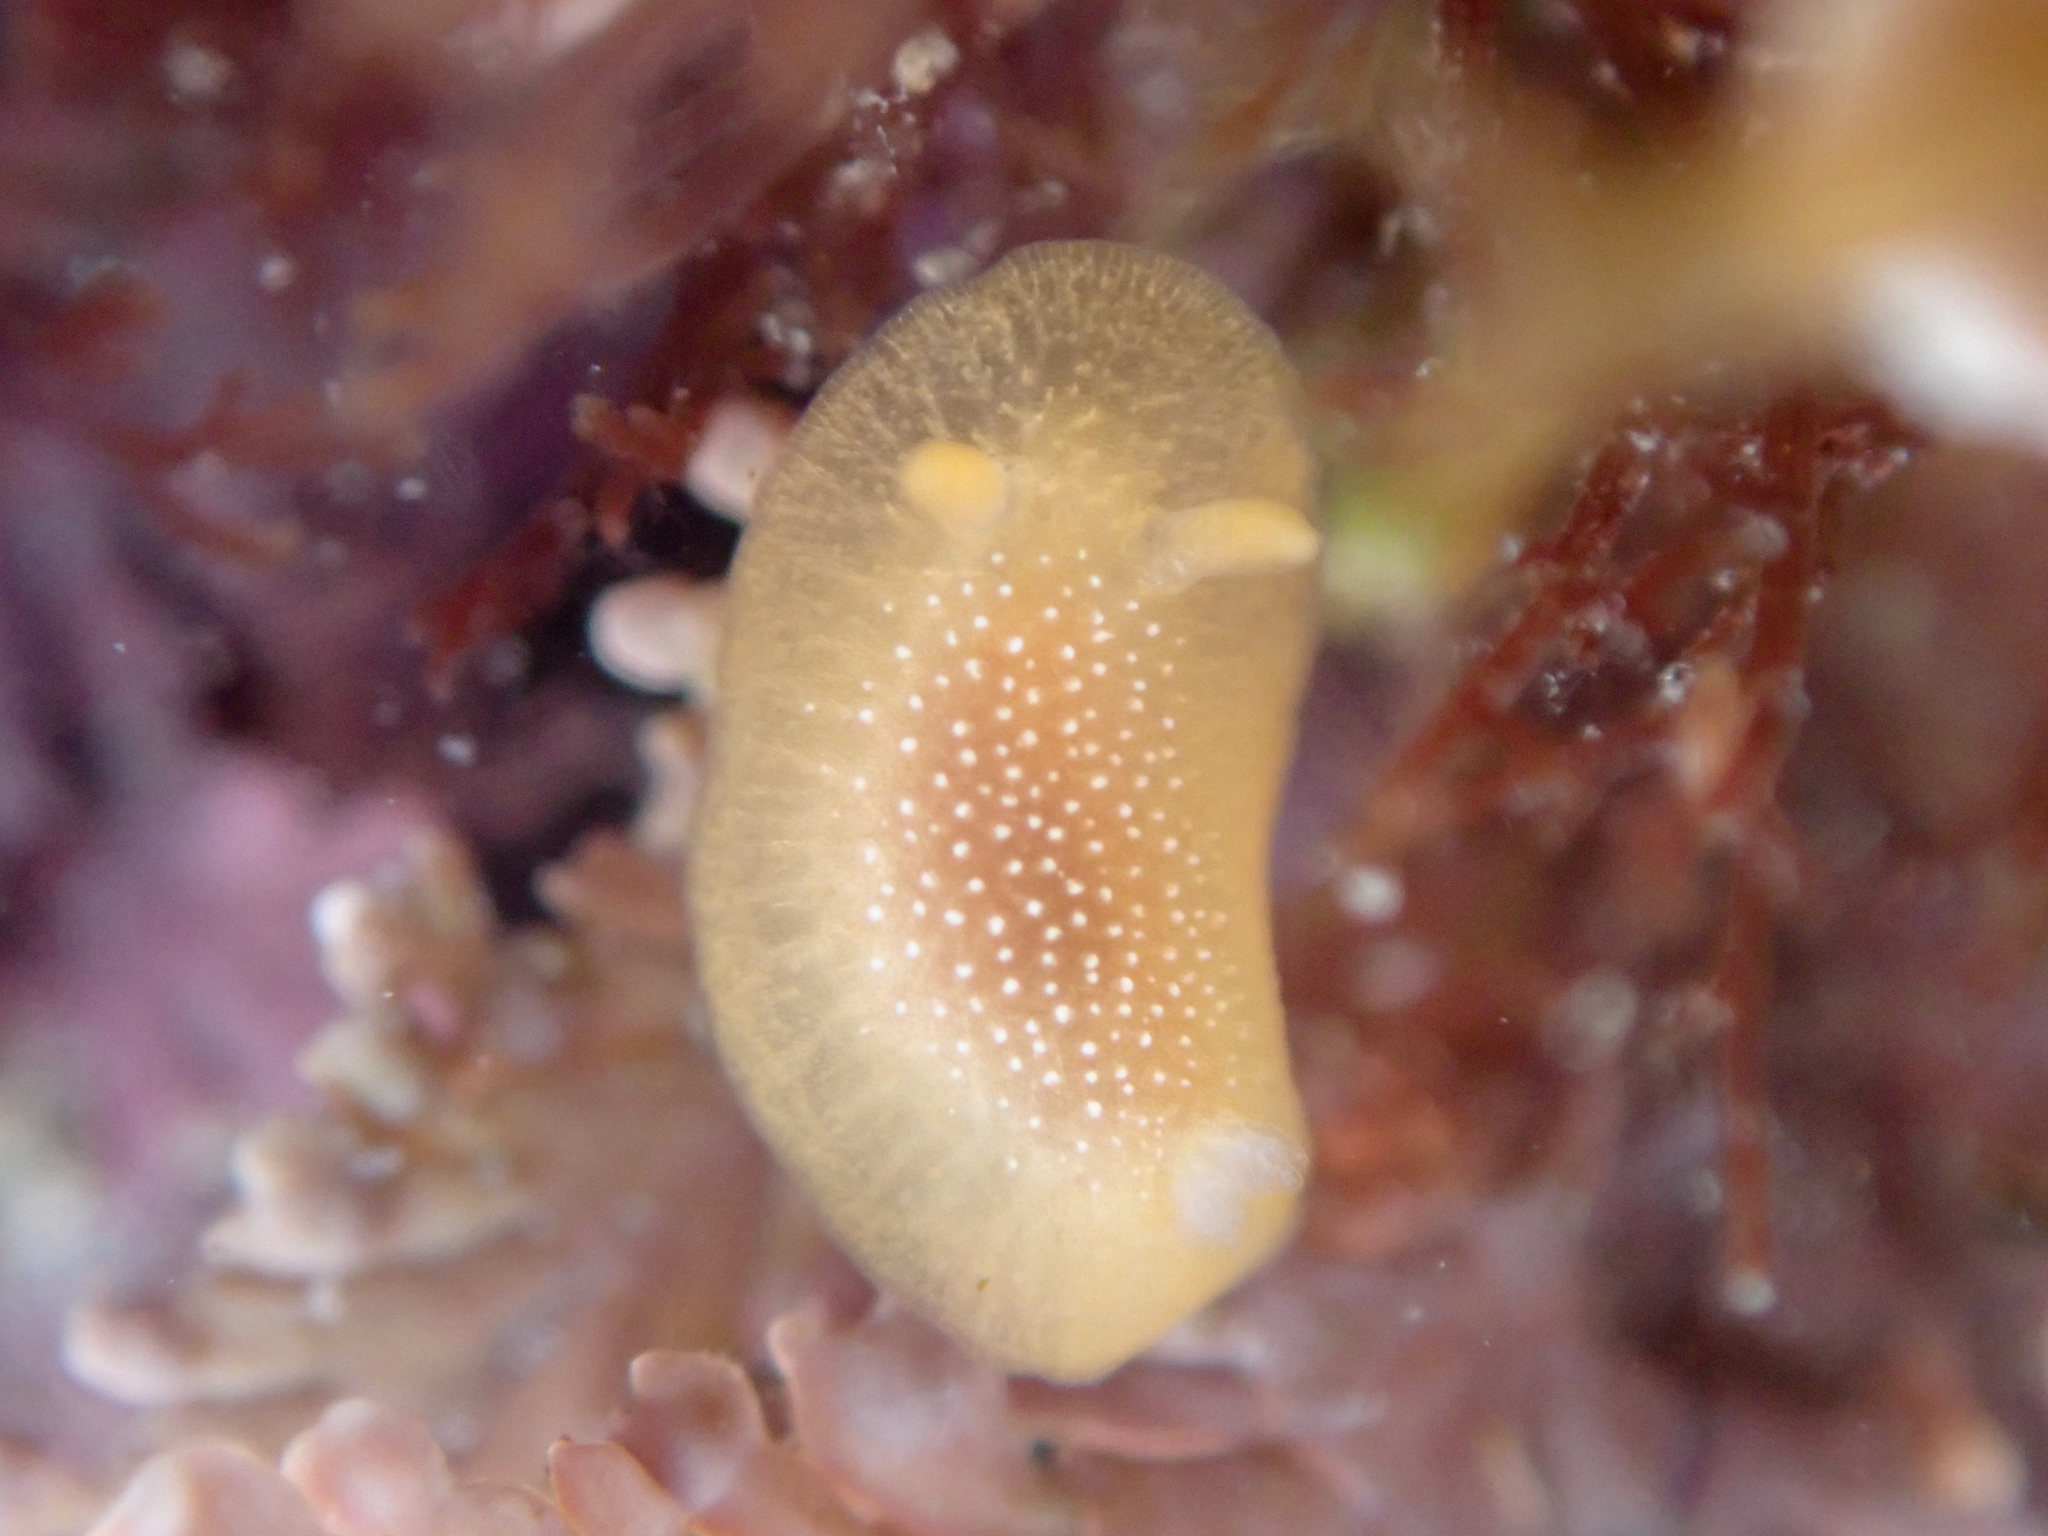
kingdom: Animalia
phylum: Mollusca
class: Gastropoda
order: Nudibranchia
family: Dendrodorididae
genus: Doriopsilla
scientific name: Doriopsilla albopunctata
